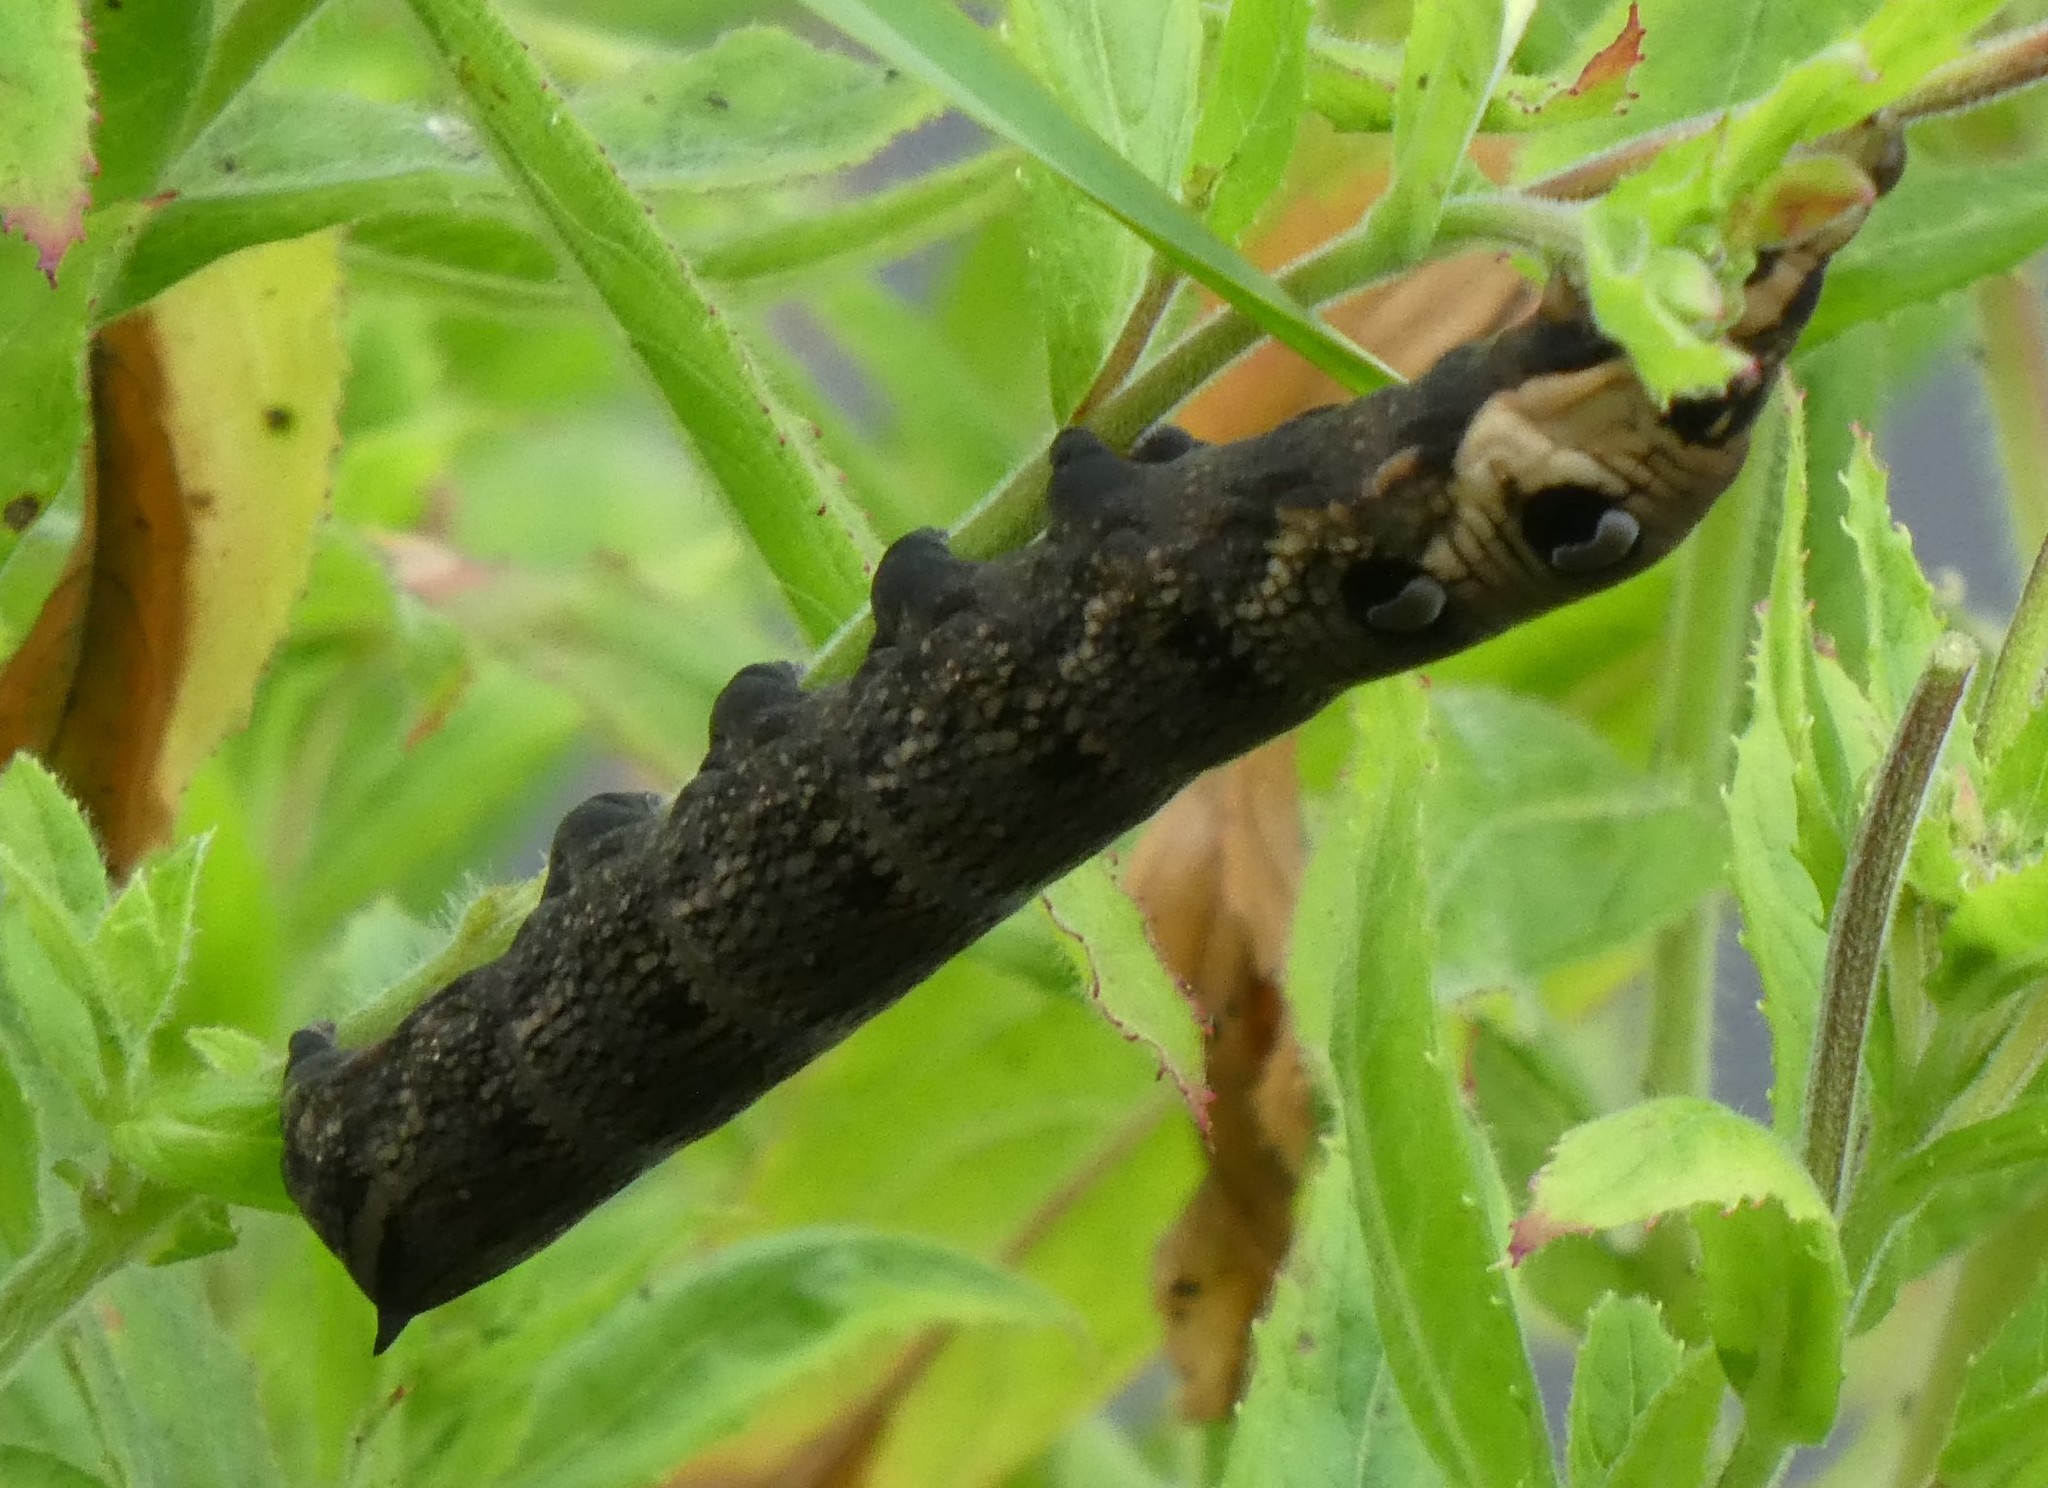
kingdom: Animalia
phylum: Arthropoda
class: Insecta
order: Lepidoptera
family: Sphingidae
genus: Deilephila
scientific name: Deilephila elpenor
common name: Elephant hawk-moth
